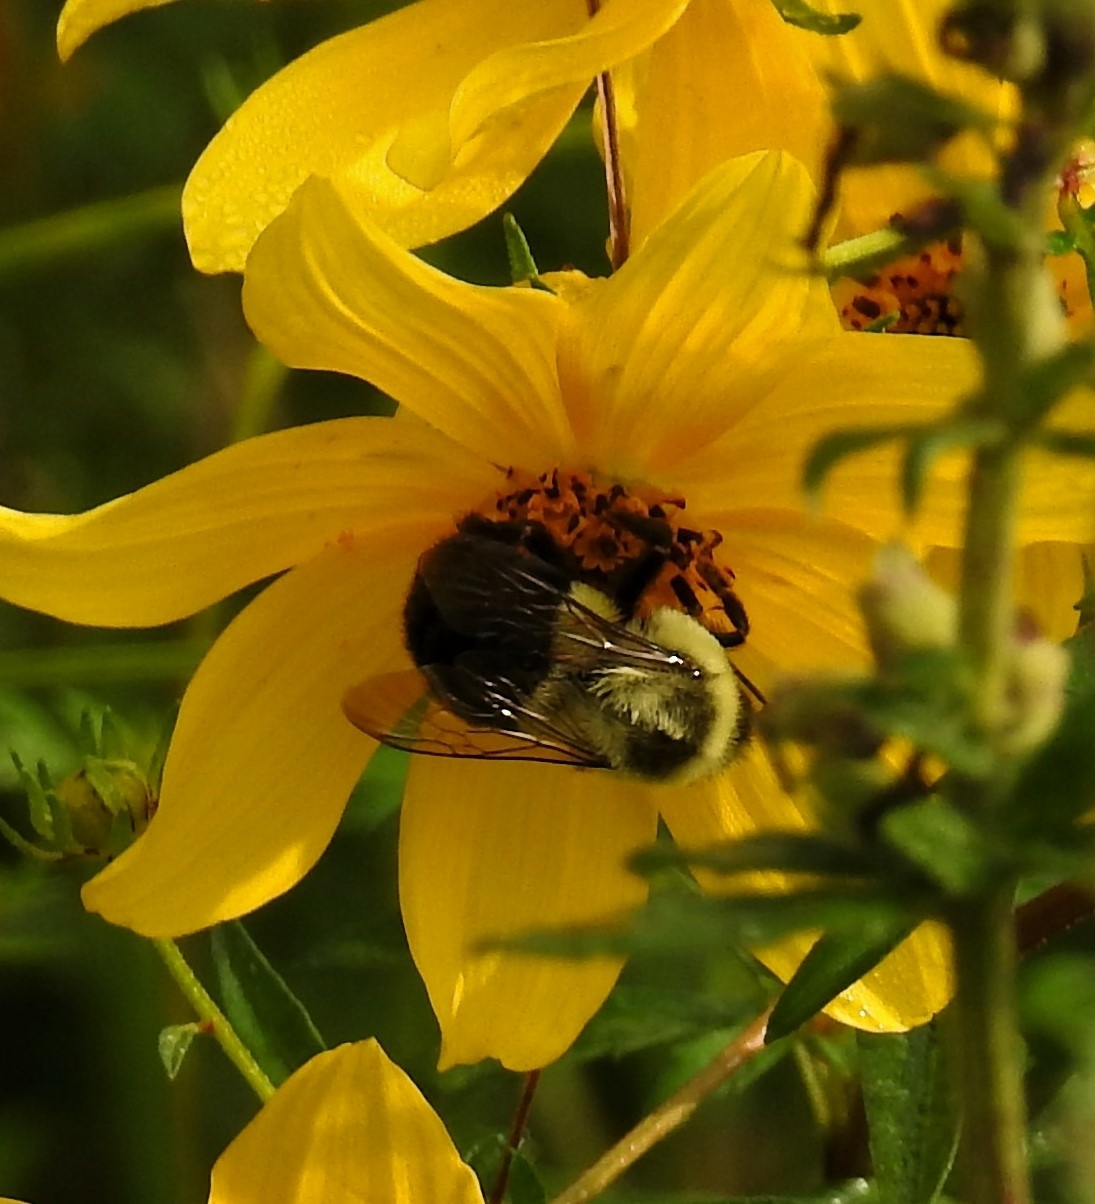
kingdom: Animalia
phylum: Arthropoda
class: Insecta
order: Hymenoptera
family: Apidae
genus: Bombus
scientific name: Bombus impatiens
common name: Common eastern bumble bee
